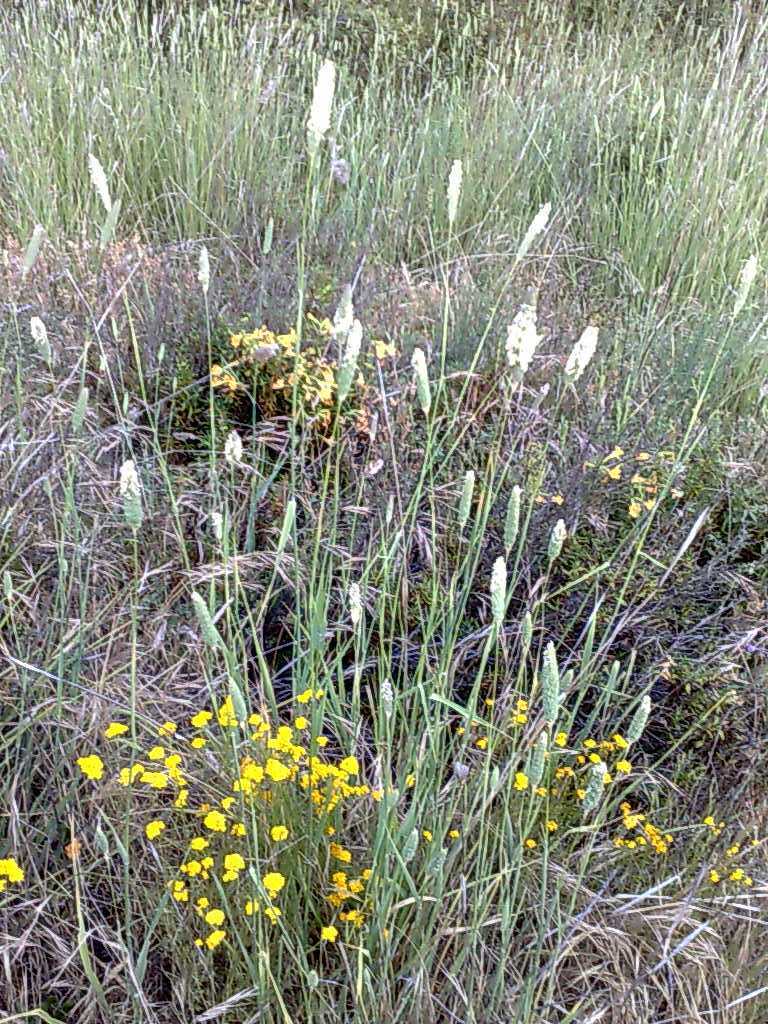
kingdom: Plantae
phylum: Tracheophyta
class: Magnoliopsida
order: Asterales
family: Asteraceae
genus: Eriophyllum
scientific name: Eriophyllum confertiflorum
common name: Golden-yarrow
